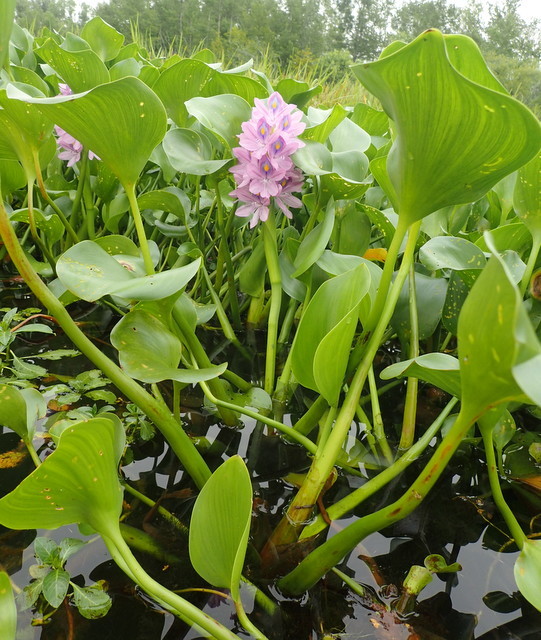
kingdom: Plantae
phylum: Tracheophyta
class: Liliopsida
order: Commelinales
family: Pontederiaceae
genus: Pontederia
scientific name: Pontederia crassipes
